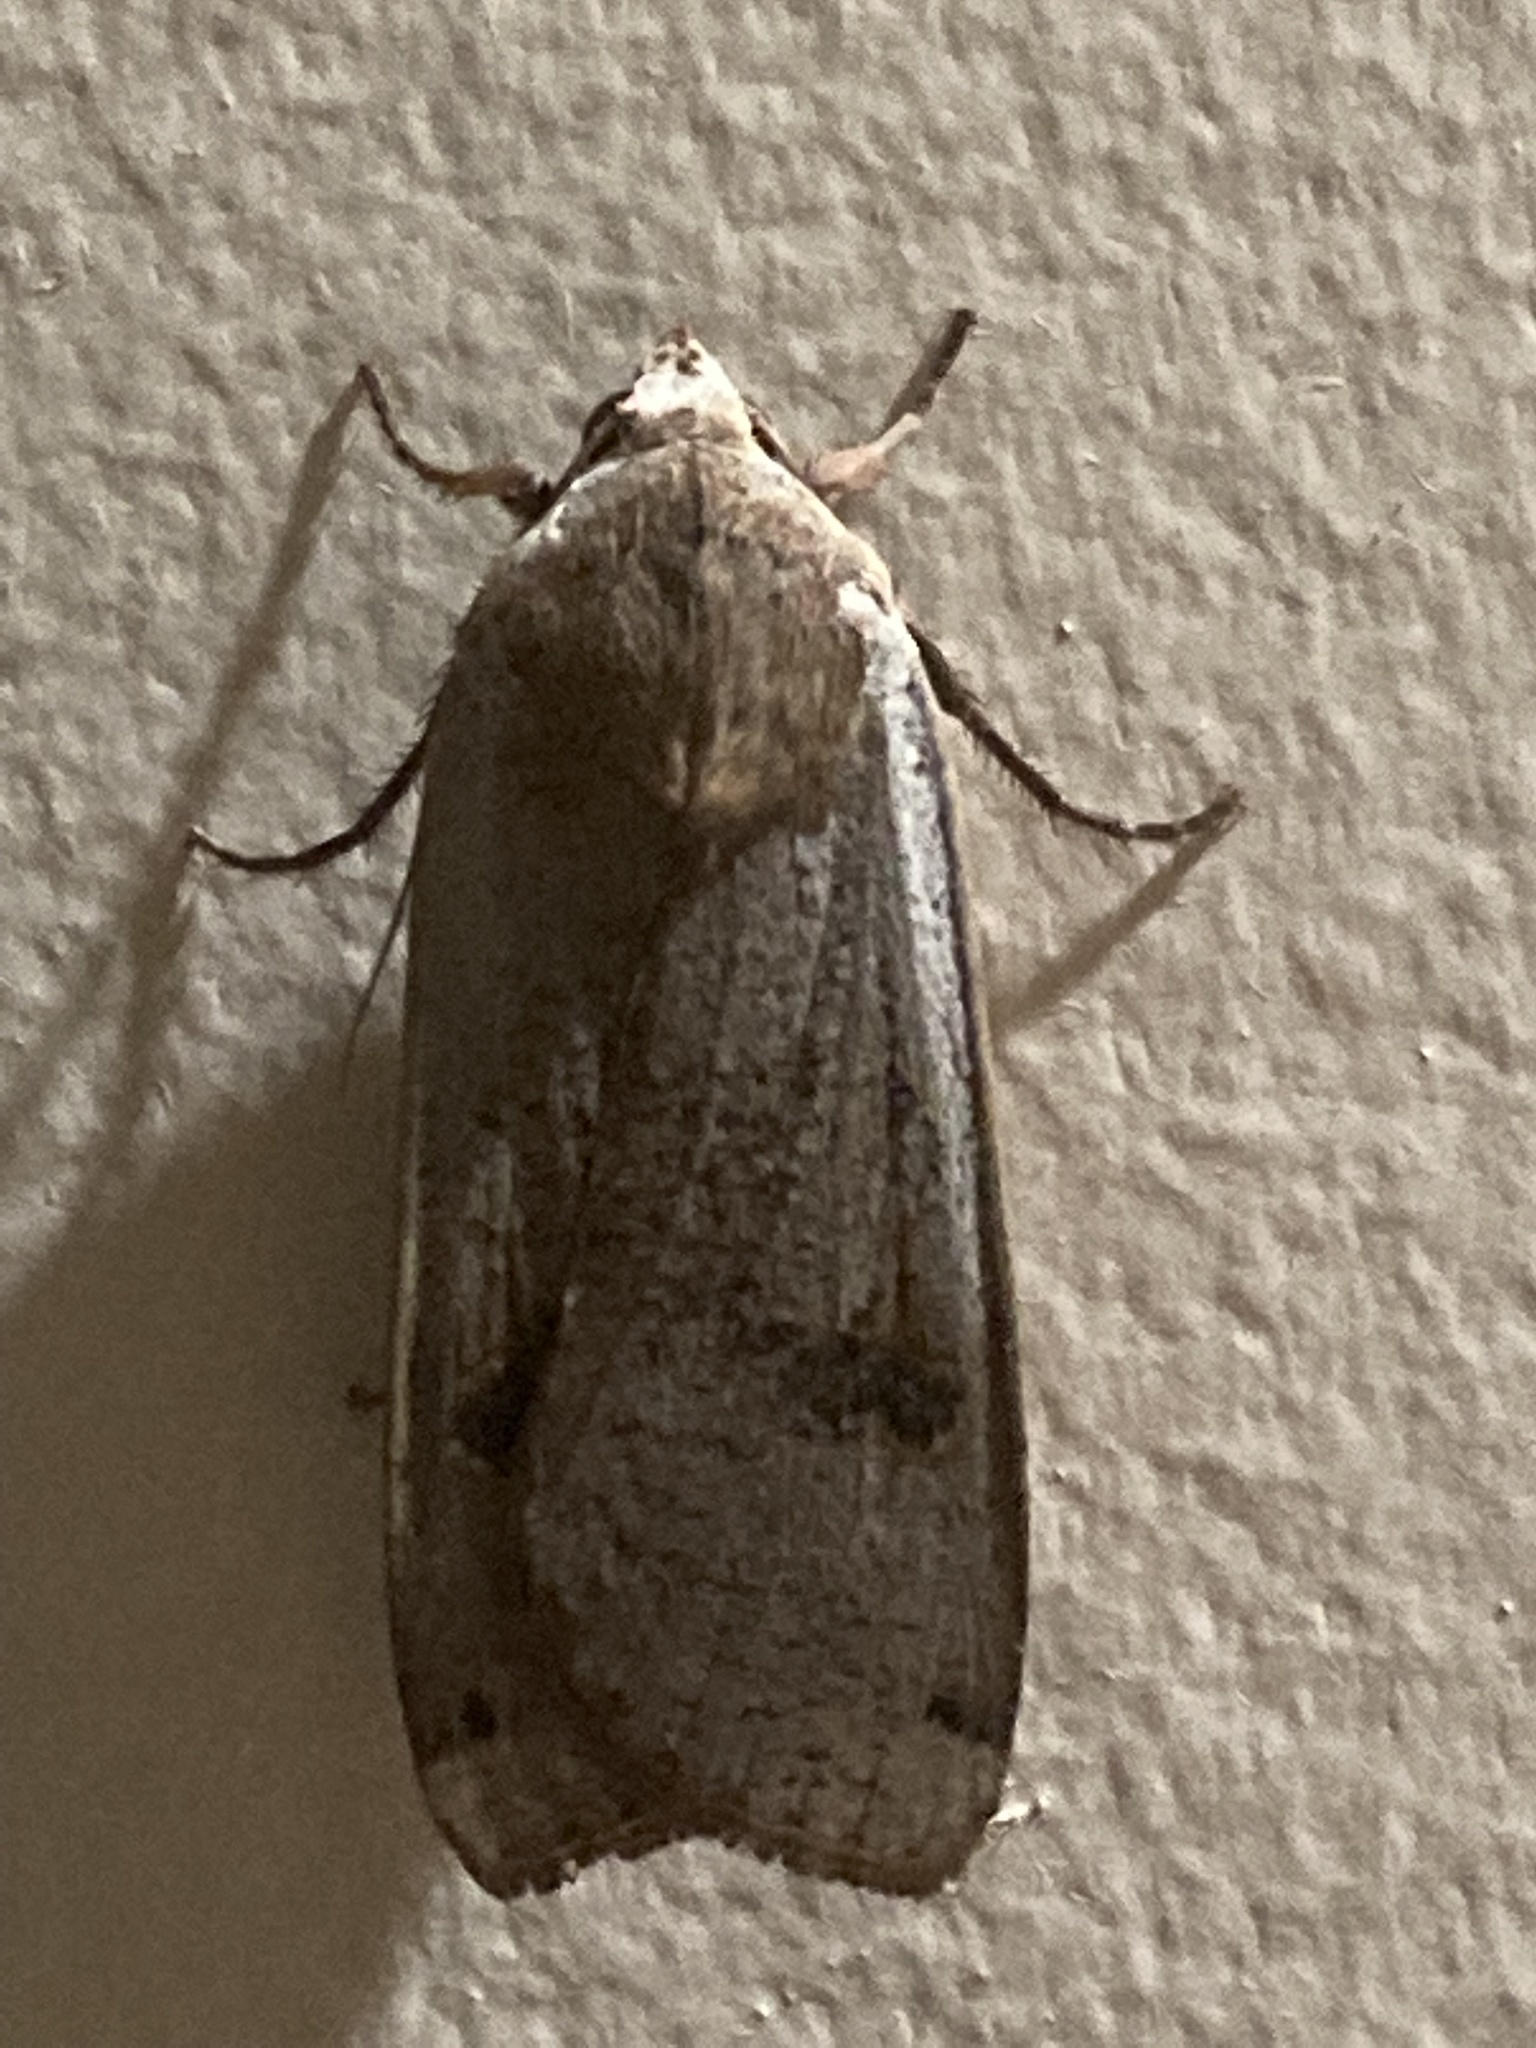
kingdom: Animalia
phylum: Arthropoda
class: Insecta
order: Lepidoptera
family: Noctuidae
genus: Noctua
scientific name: Noctua pronuba
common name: Large yellow underwing
